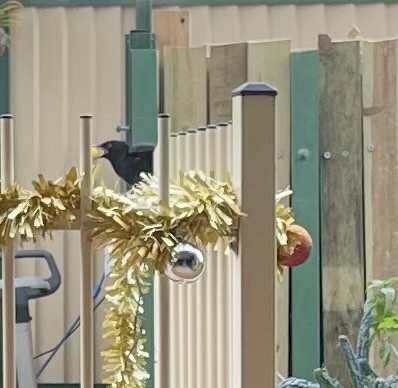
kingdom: Animalia
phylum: Chordata
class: Aves
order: Cuculiformes
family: Cuculidae
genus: Eudynamys
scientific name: Eudynamys orientalis
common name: Pacific koel
